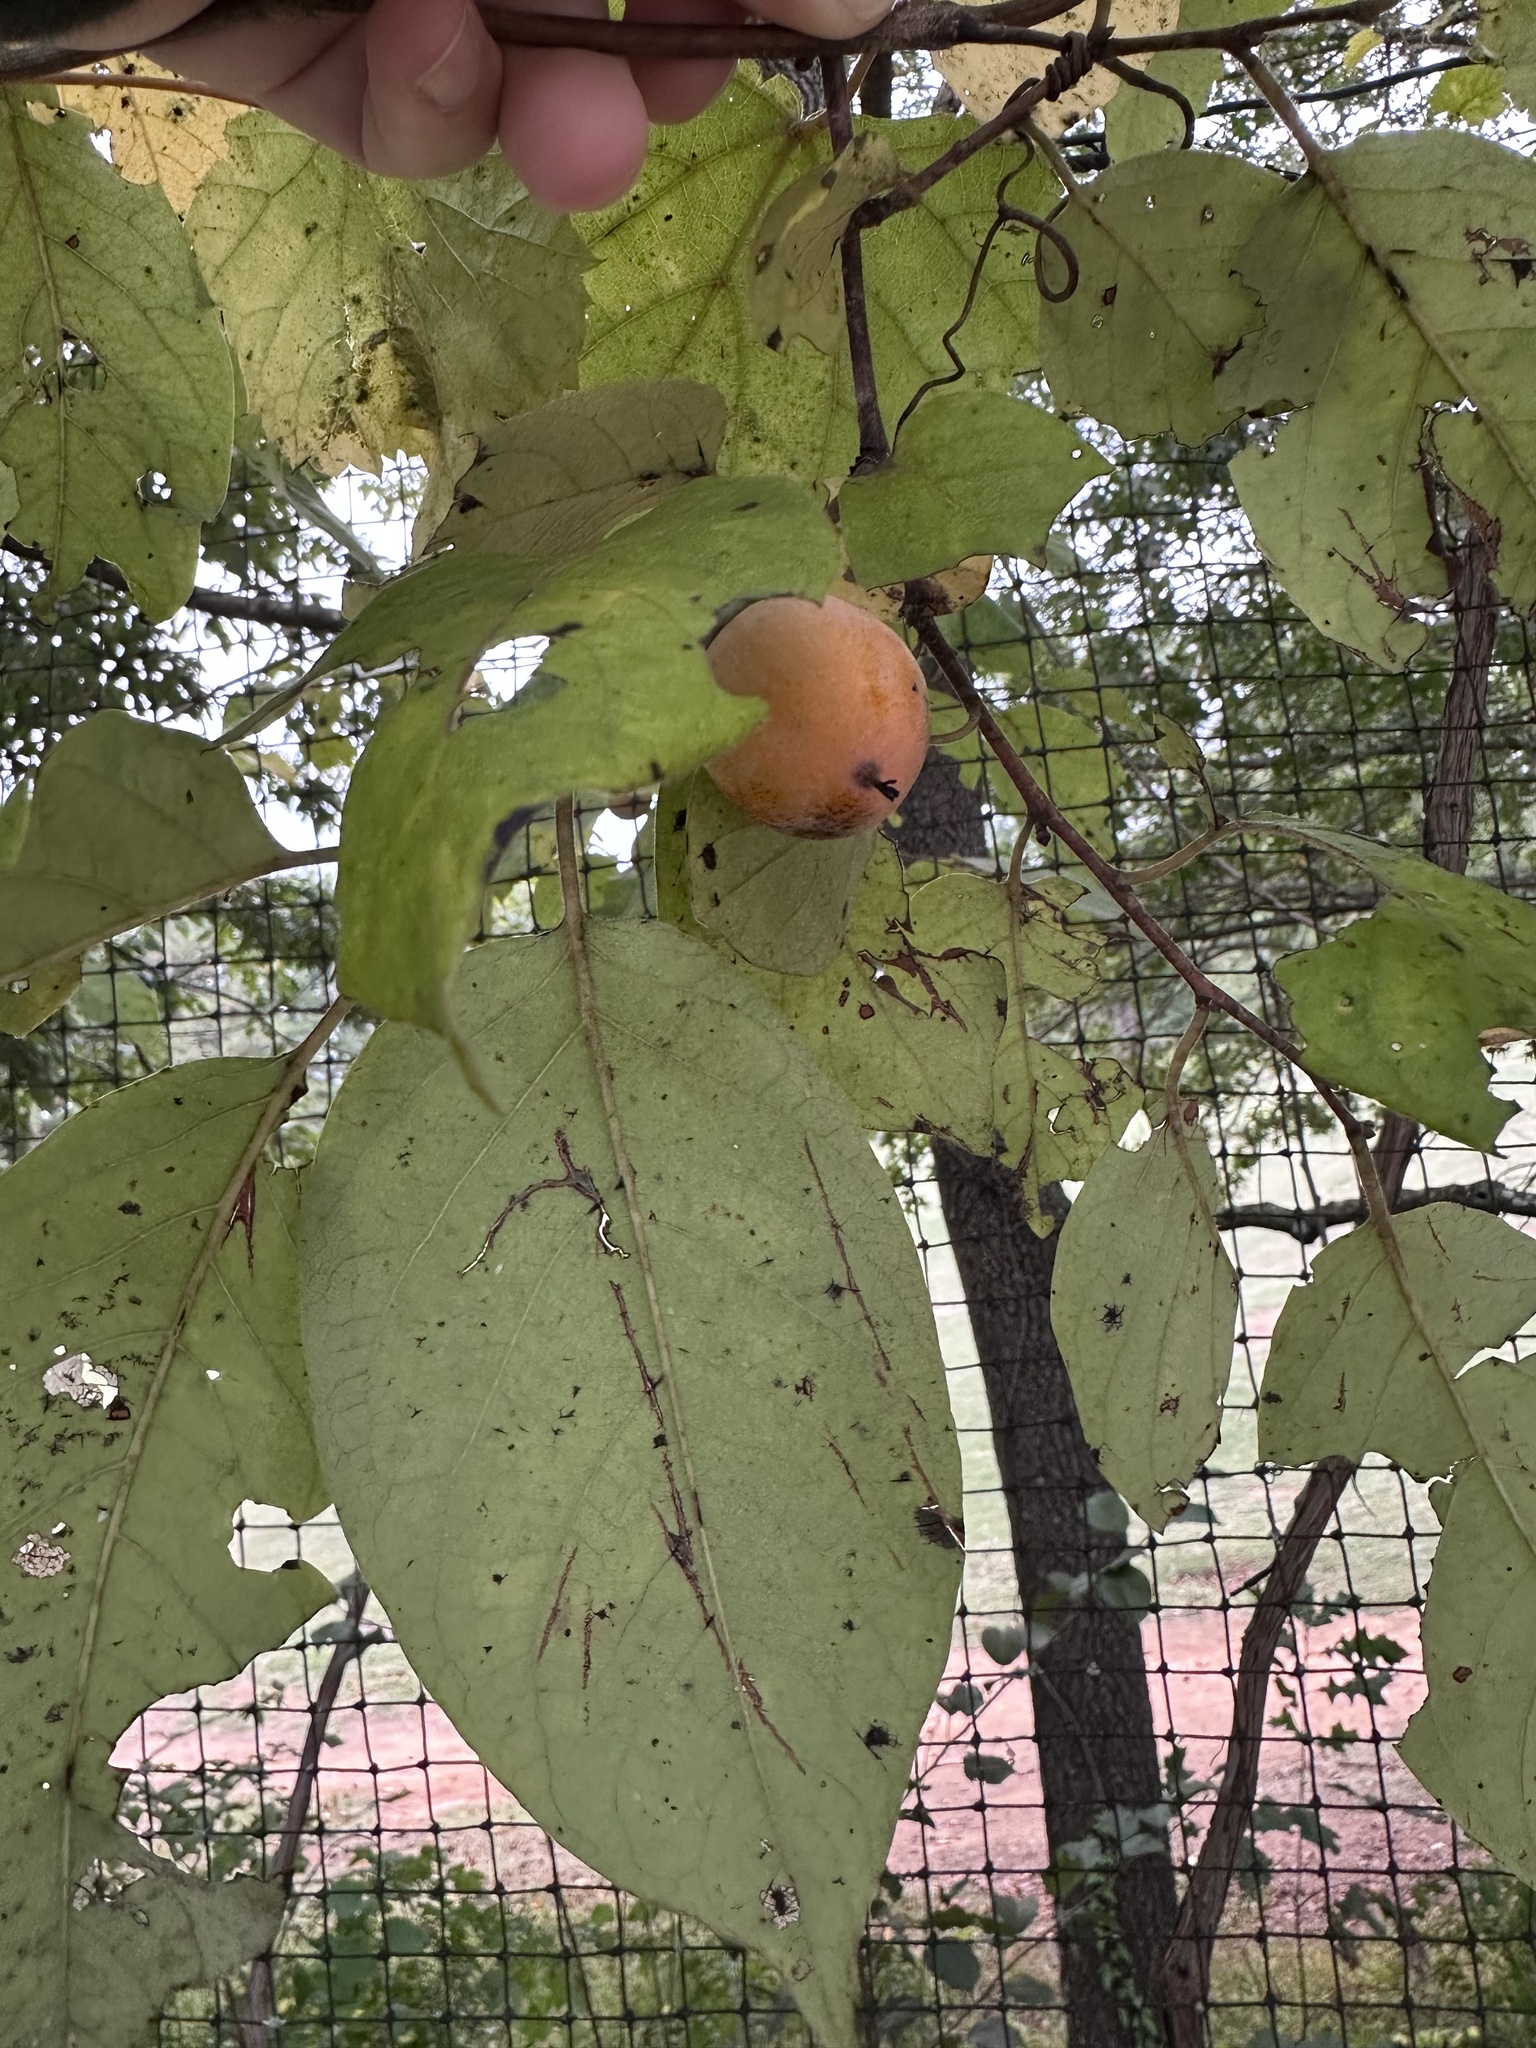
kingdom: Plantae
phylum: Tracheophyta
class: Magnoliopsida
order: Ericales
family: Ebenaceae
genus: Diospyros
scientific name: Diospyros virginiana
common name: Persimmon
